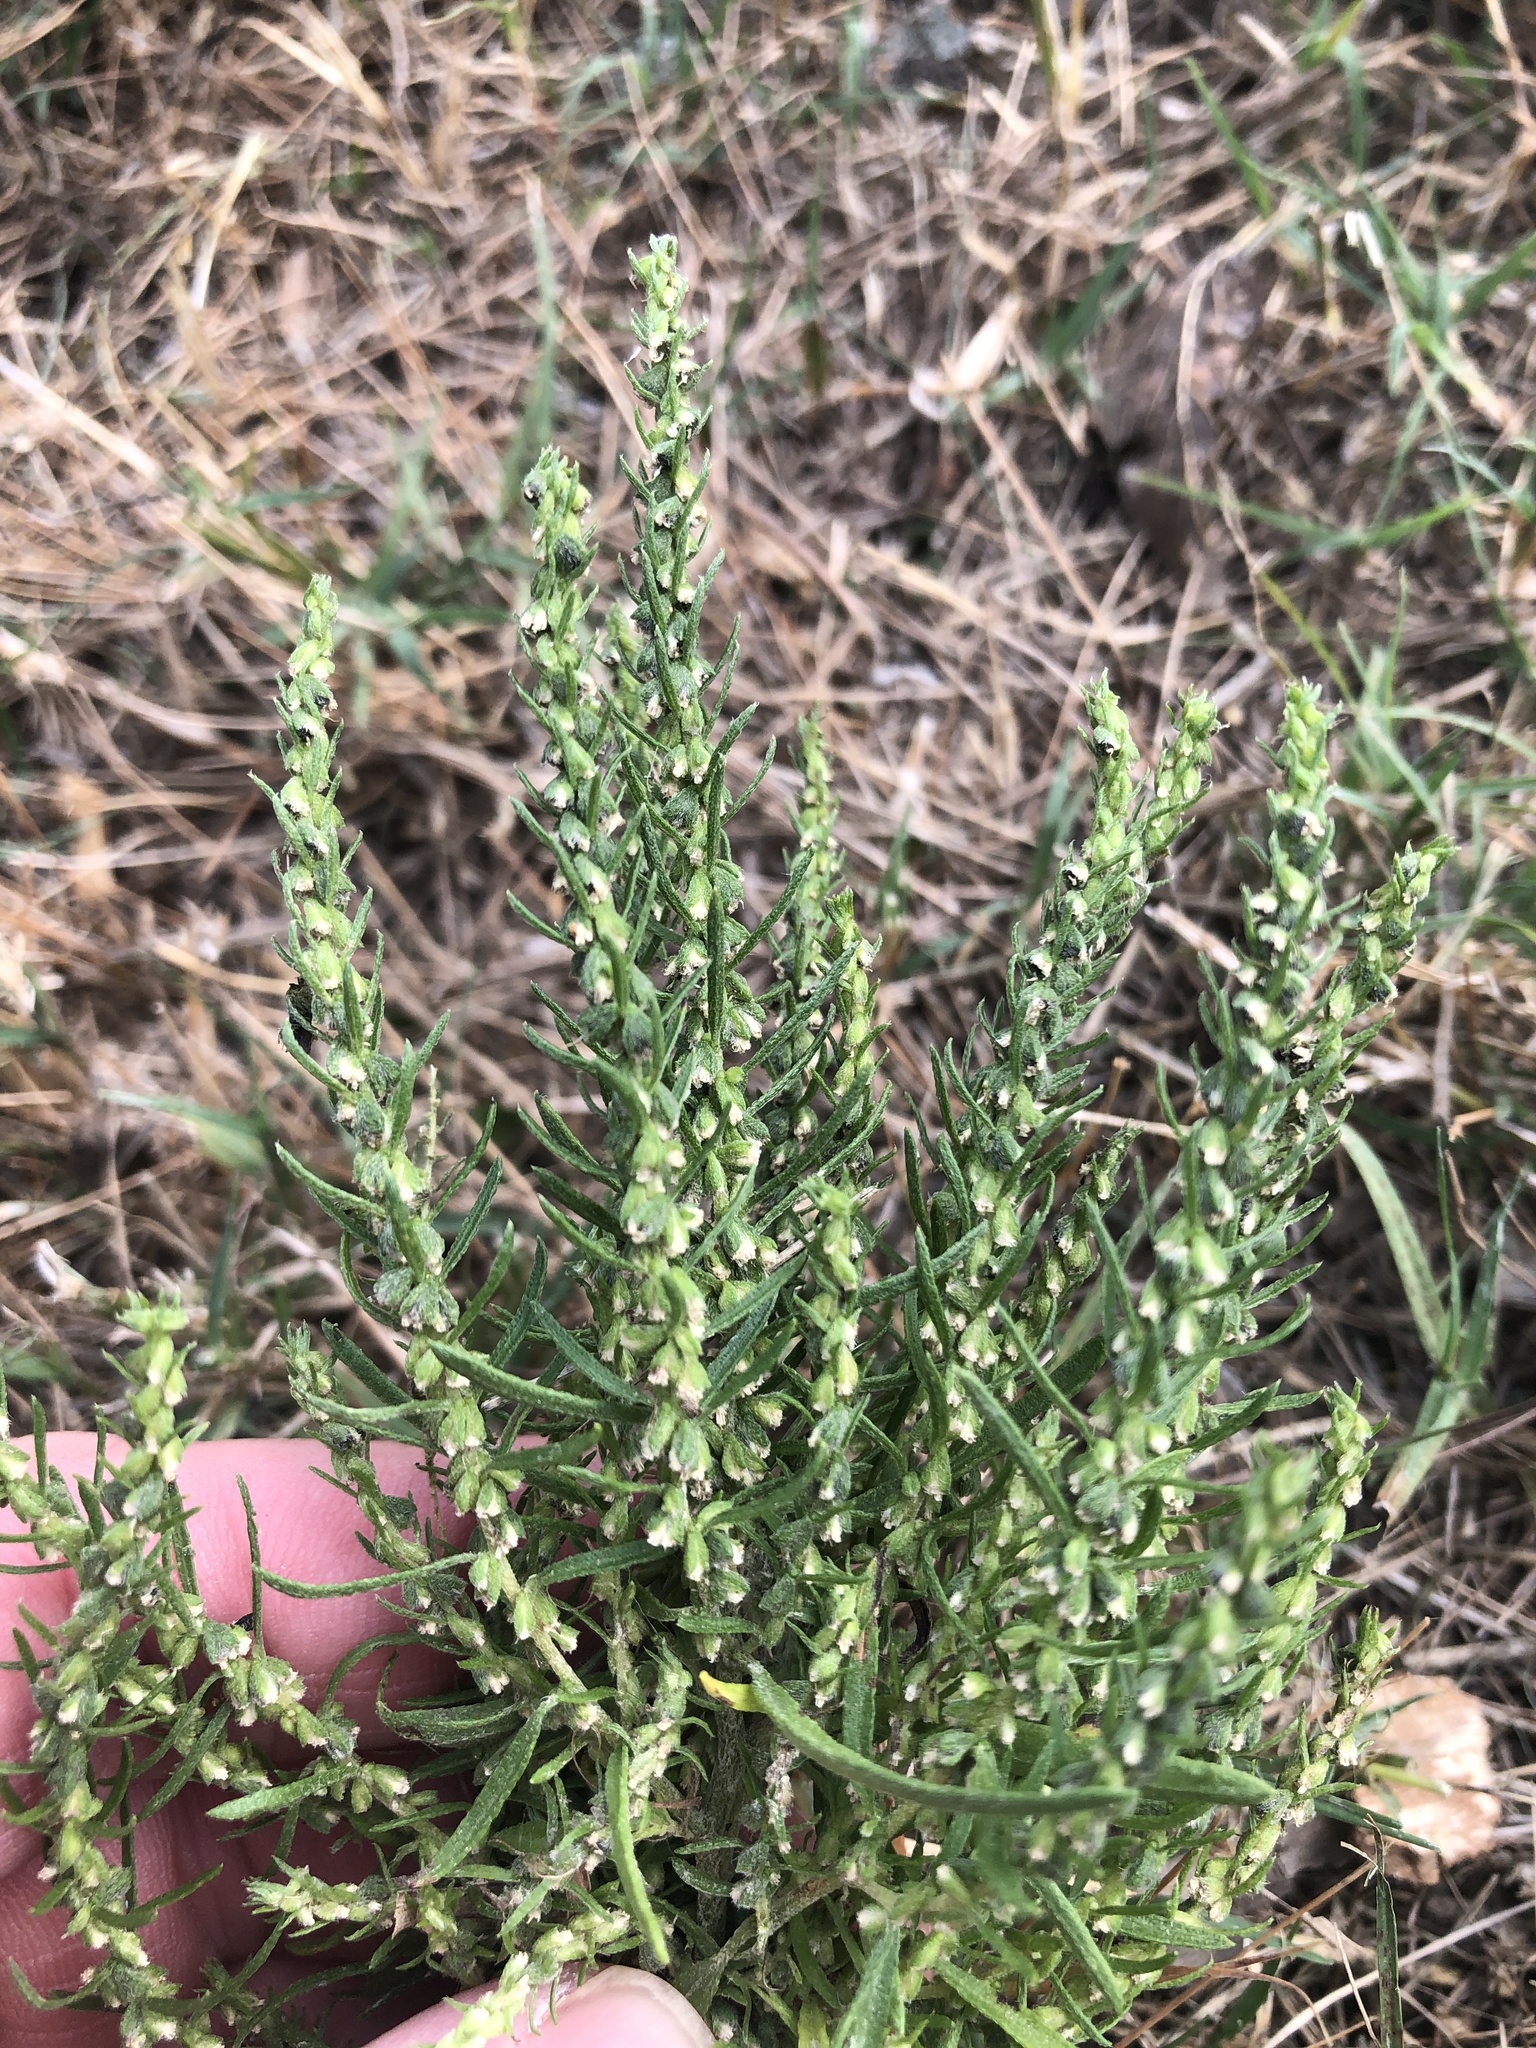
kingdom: Plantae
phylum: Tracheophyta
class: Magnoliopsida
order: Asterales
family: Asteraceae
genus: Ambrosia
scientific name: Ambrosia psilostachya
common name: Perennial ragweed
